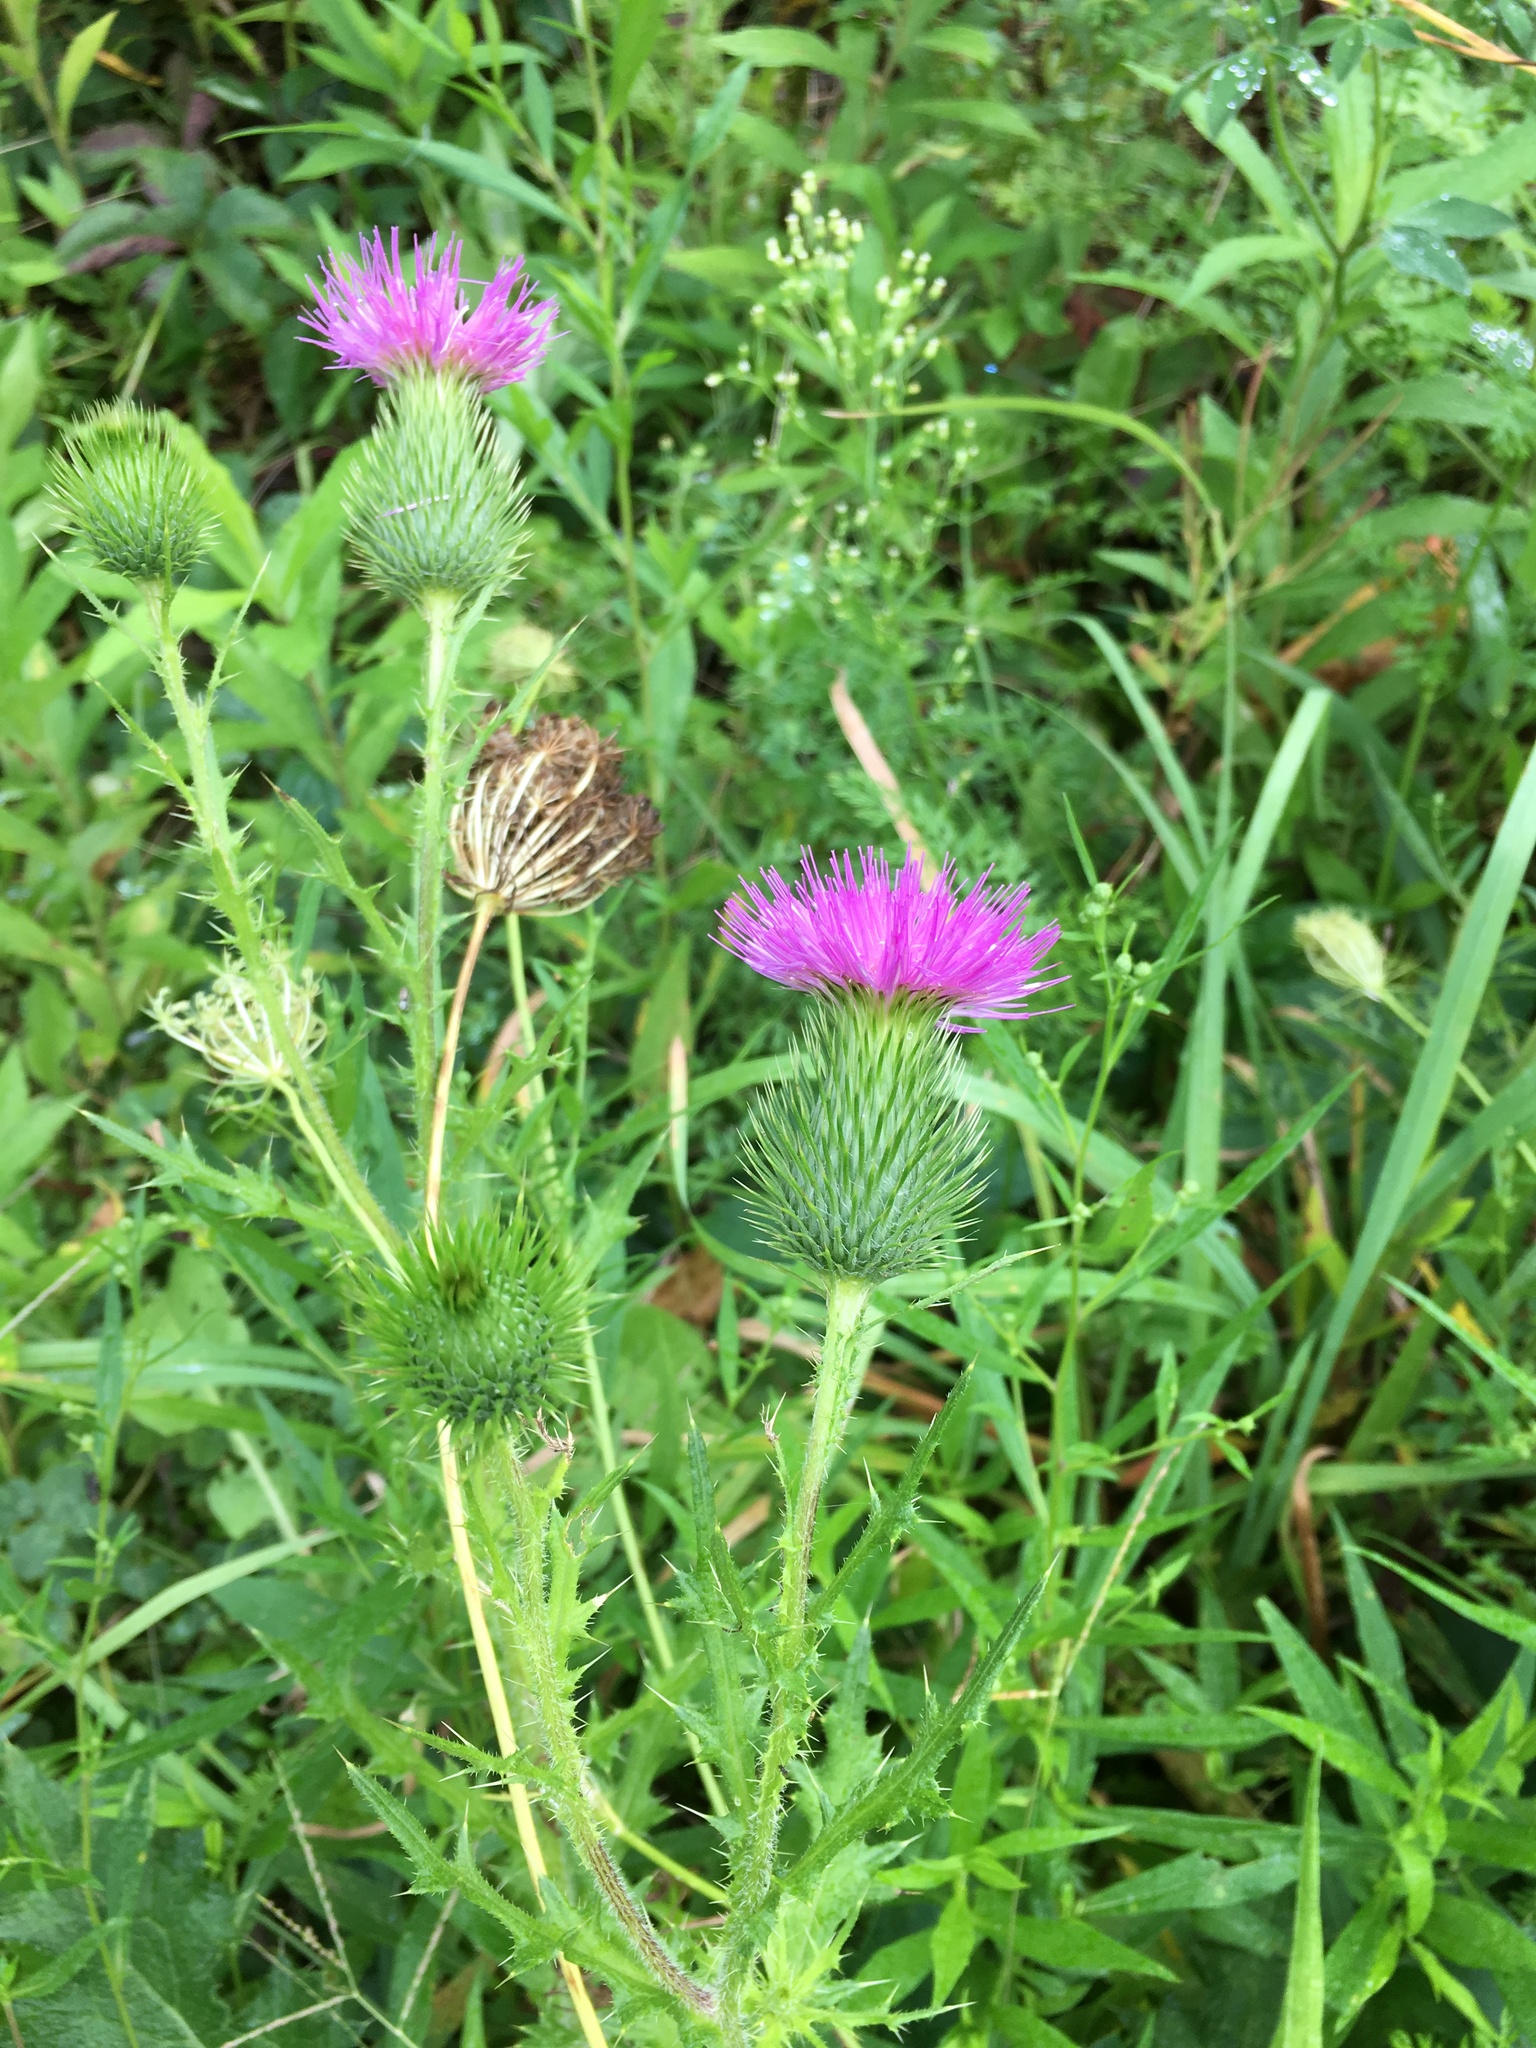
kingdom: Plantae
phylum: Tracheophyta
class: Magnoliopsida
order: Asterales
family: Asteraceae
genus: Cirsium
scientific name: Cirsium vulgare
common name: Bull thistle
